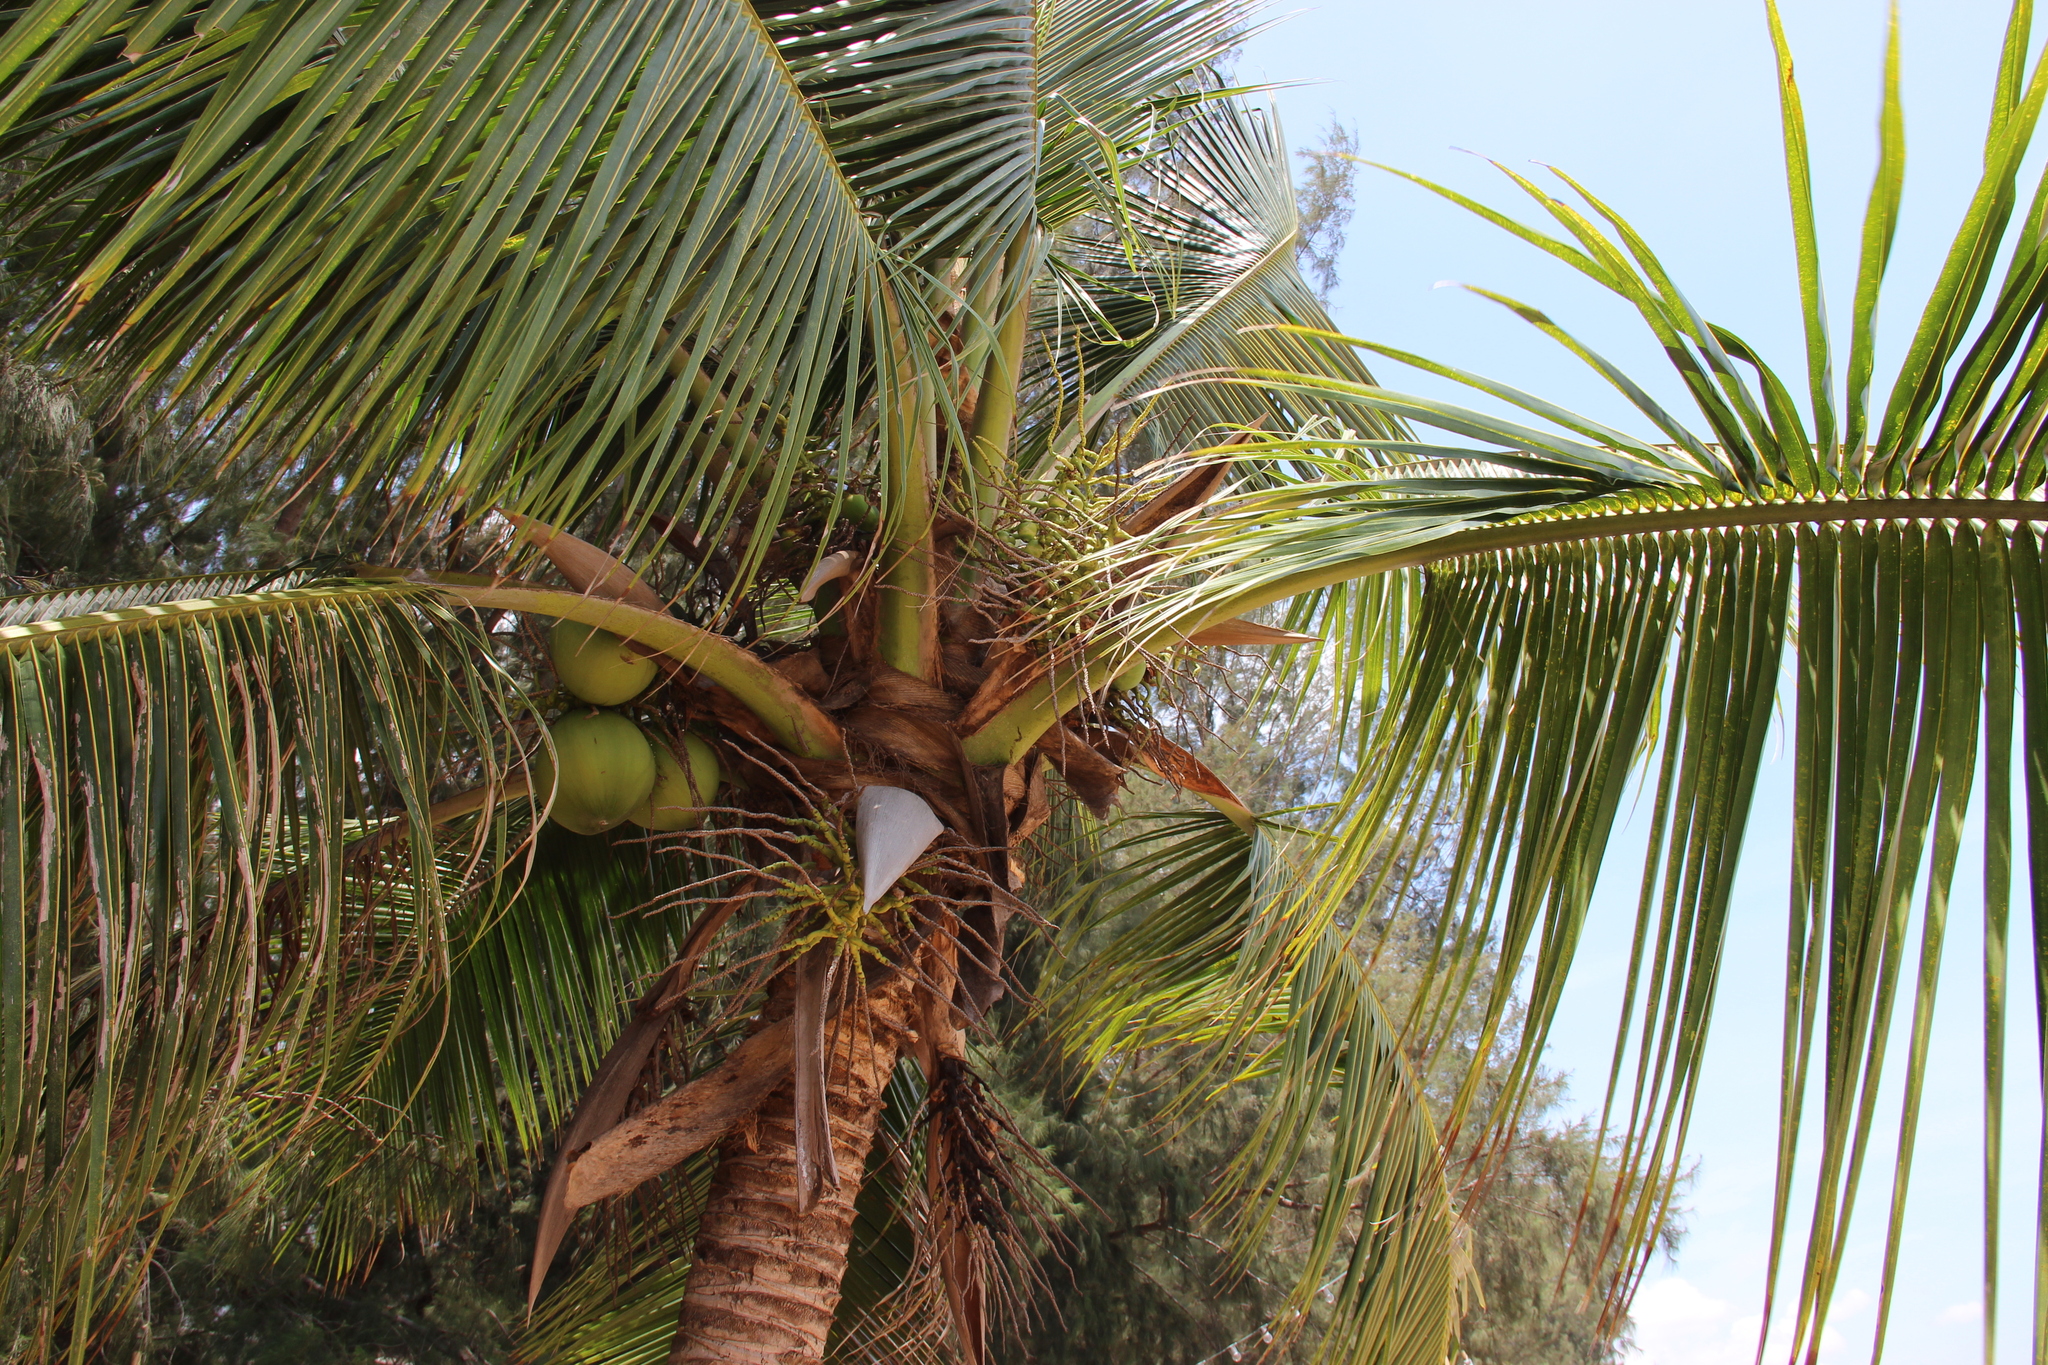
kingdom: Plantae
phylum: Tracheophyta
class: Liliopsida
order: Arecales
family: Arecaceae
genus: Cocos
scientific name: Cocos nucifera
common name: Coconut palm
